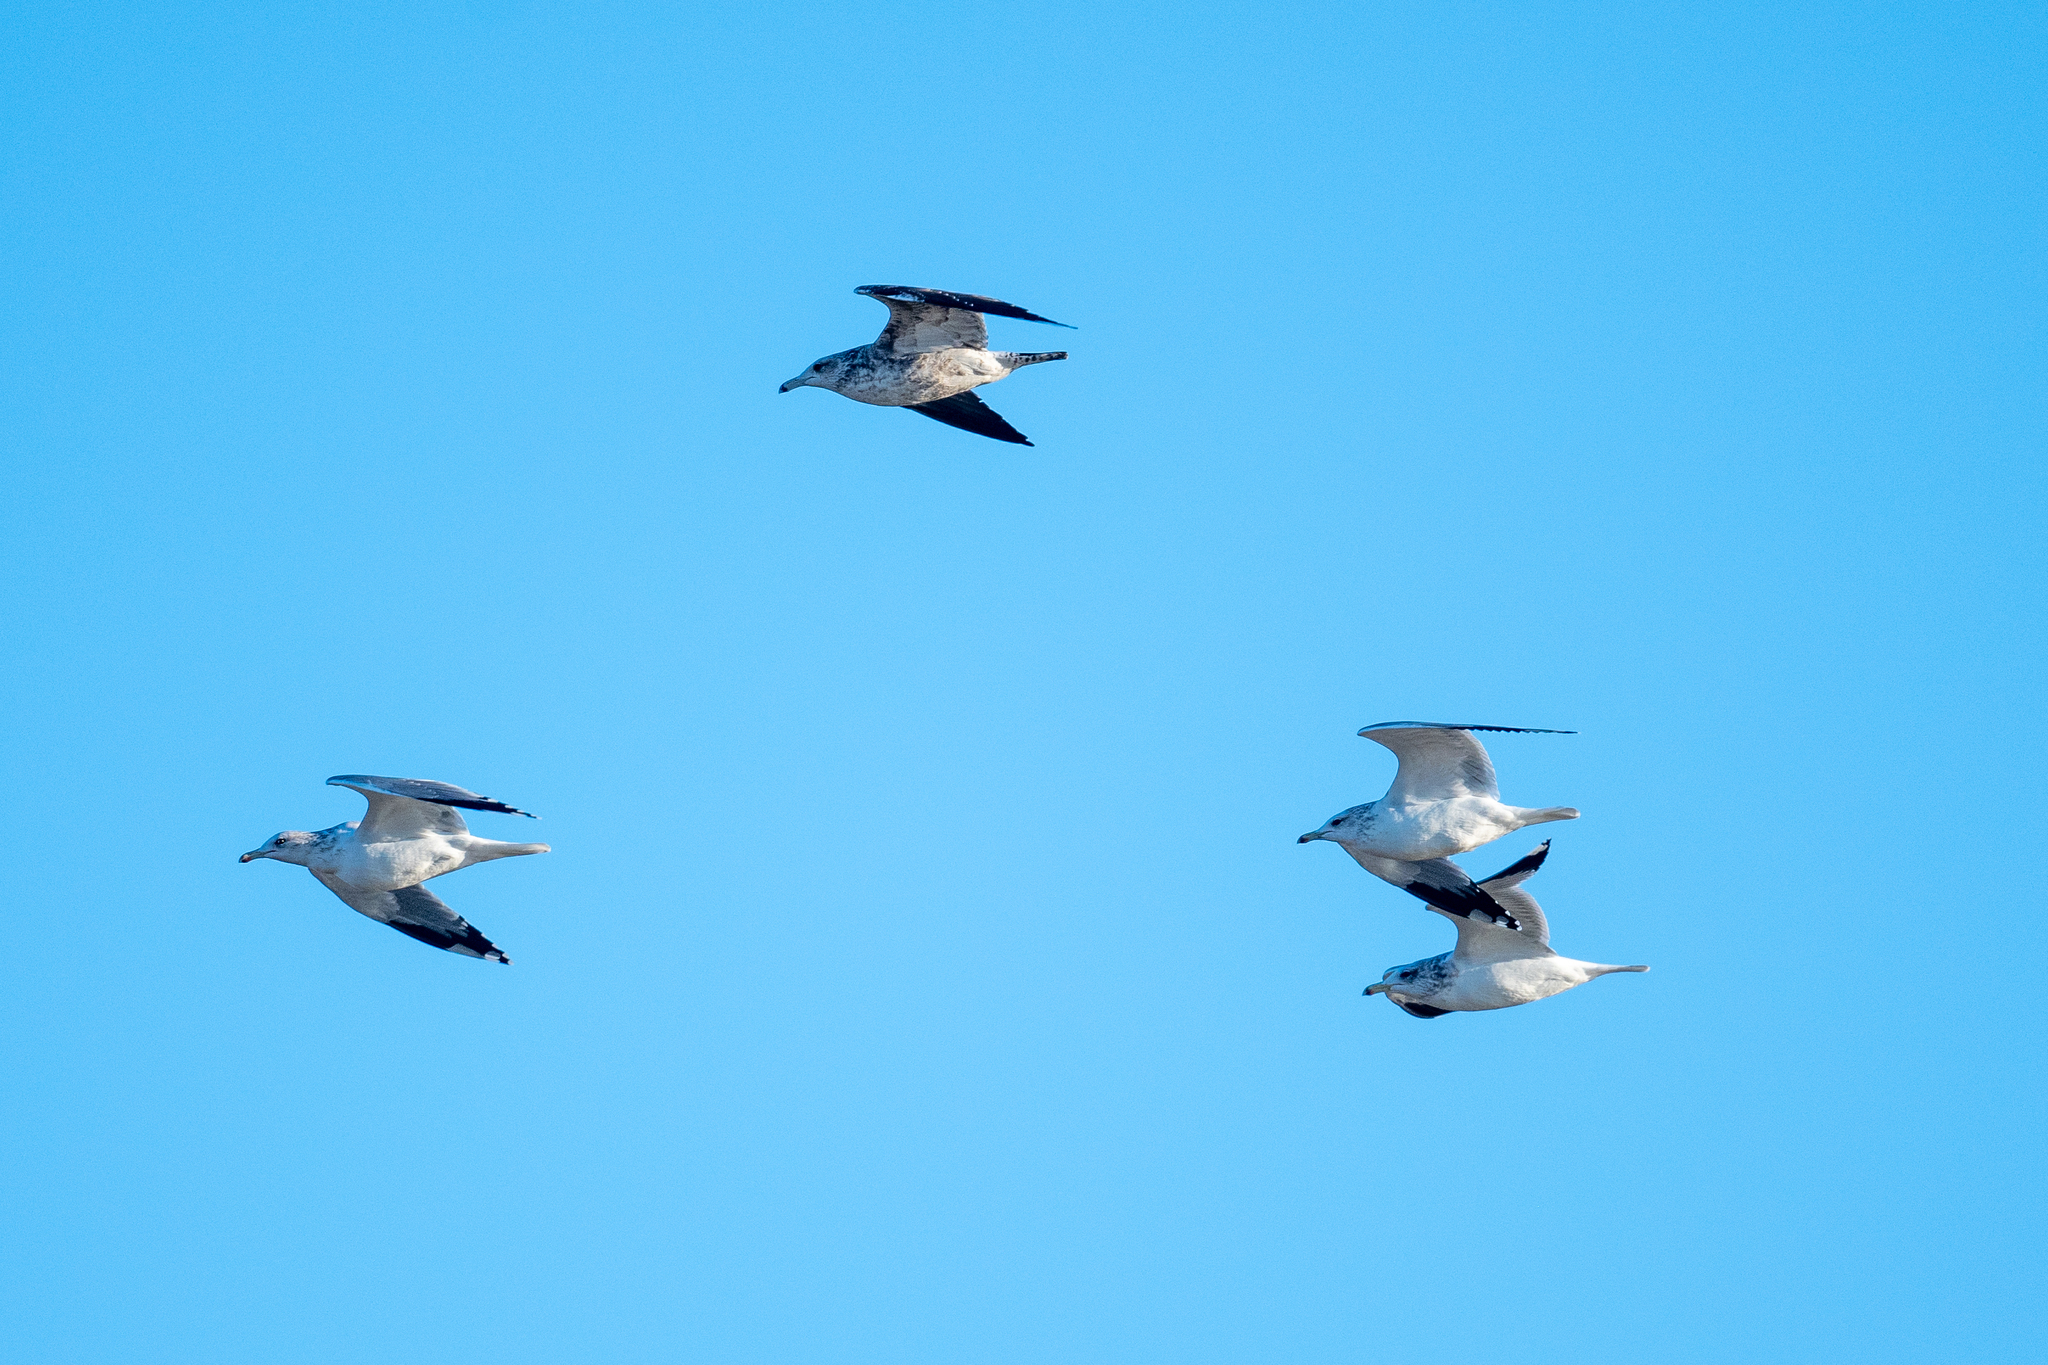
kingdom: Animalia
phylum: Chordata
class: Aves
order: Charadriiformes
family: Laridae
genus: Larus
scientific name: Larus californicus
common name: California gull
